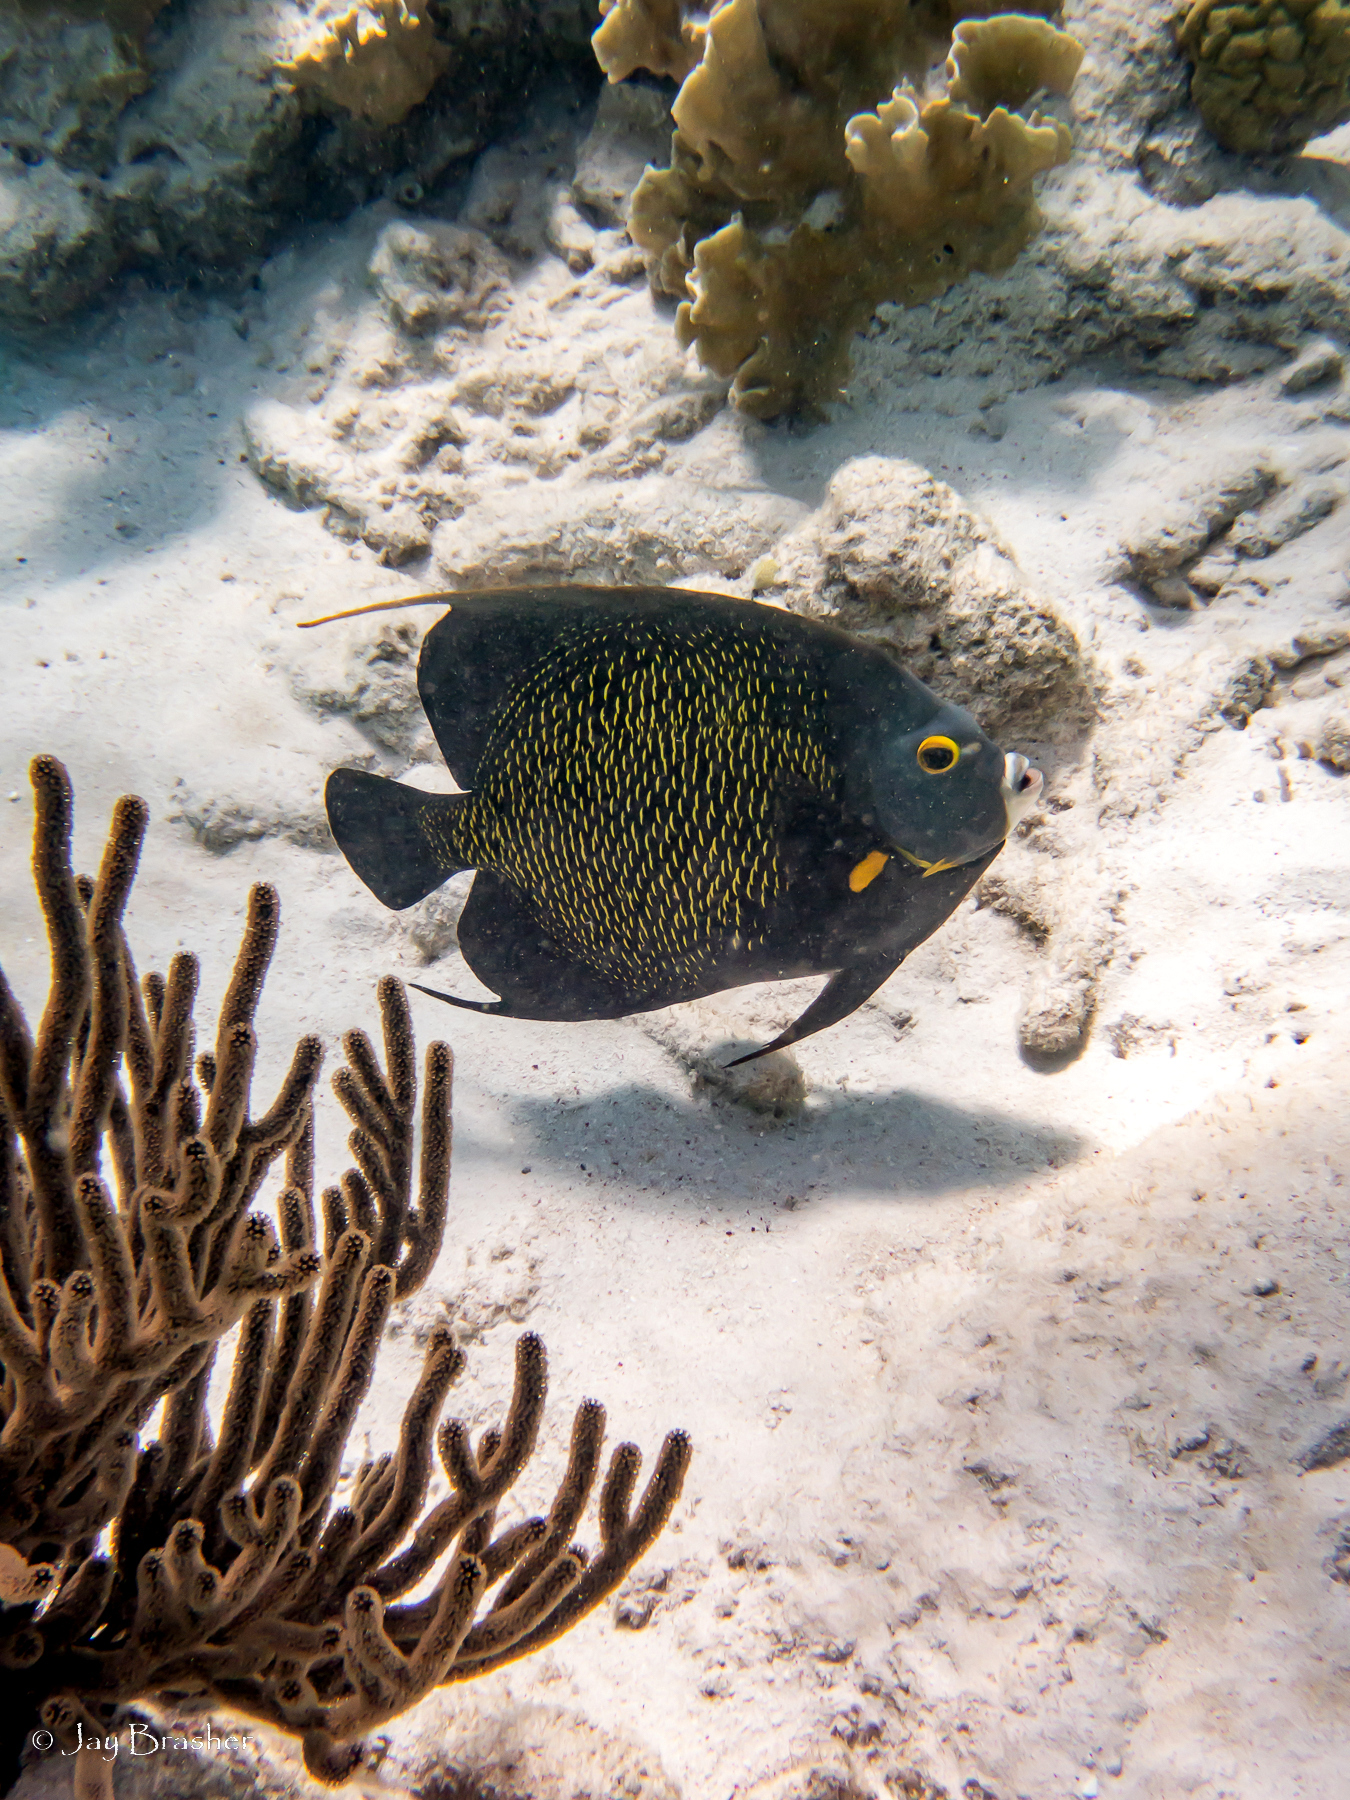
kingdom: Animalia
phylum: Chordata
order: Perciformes
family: Pomacanthidae
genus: Pomacanthus
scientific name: Pomacanthus paru
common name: French angelfish
